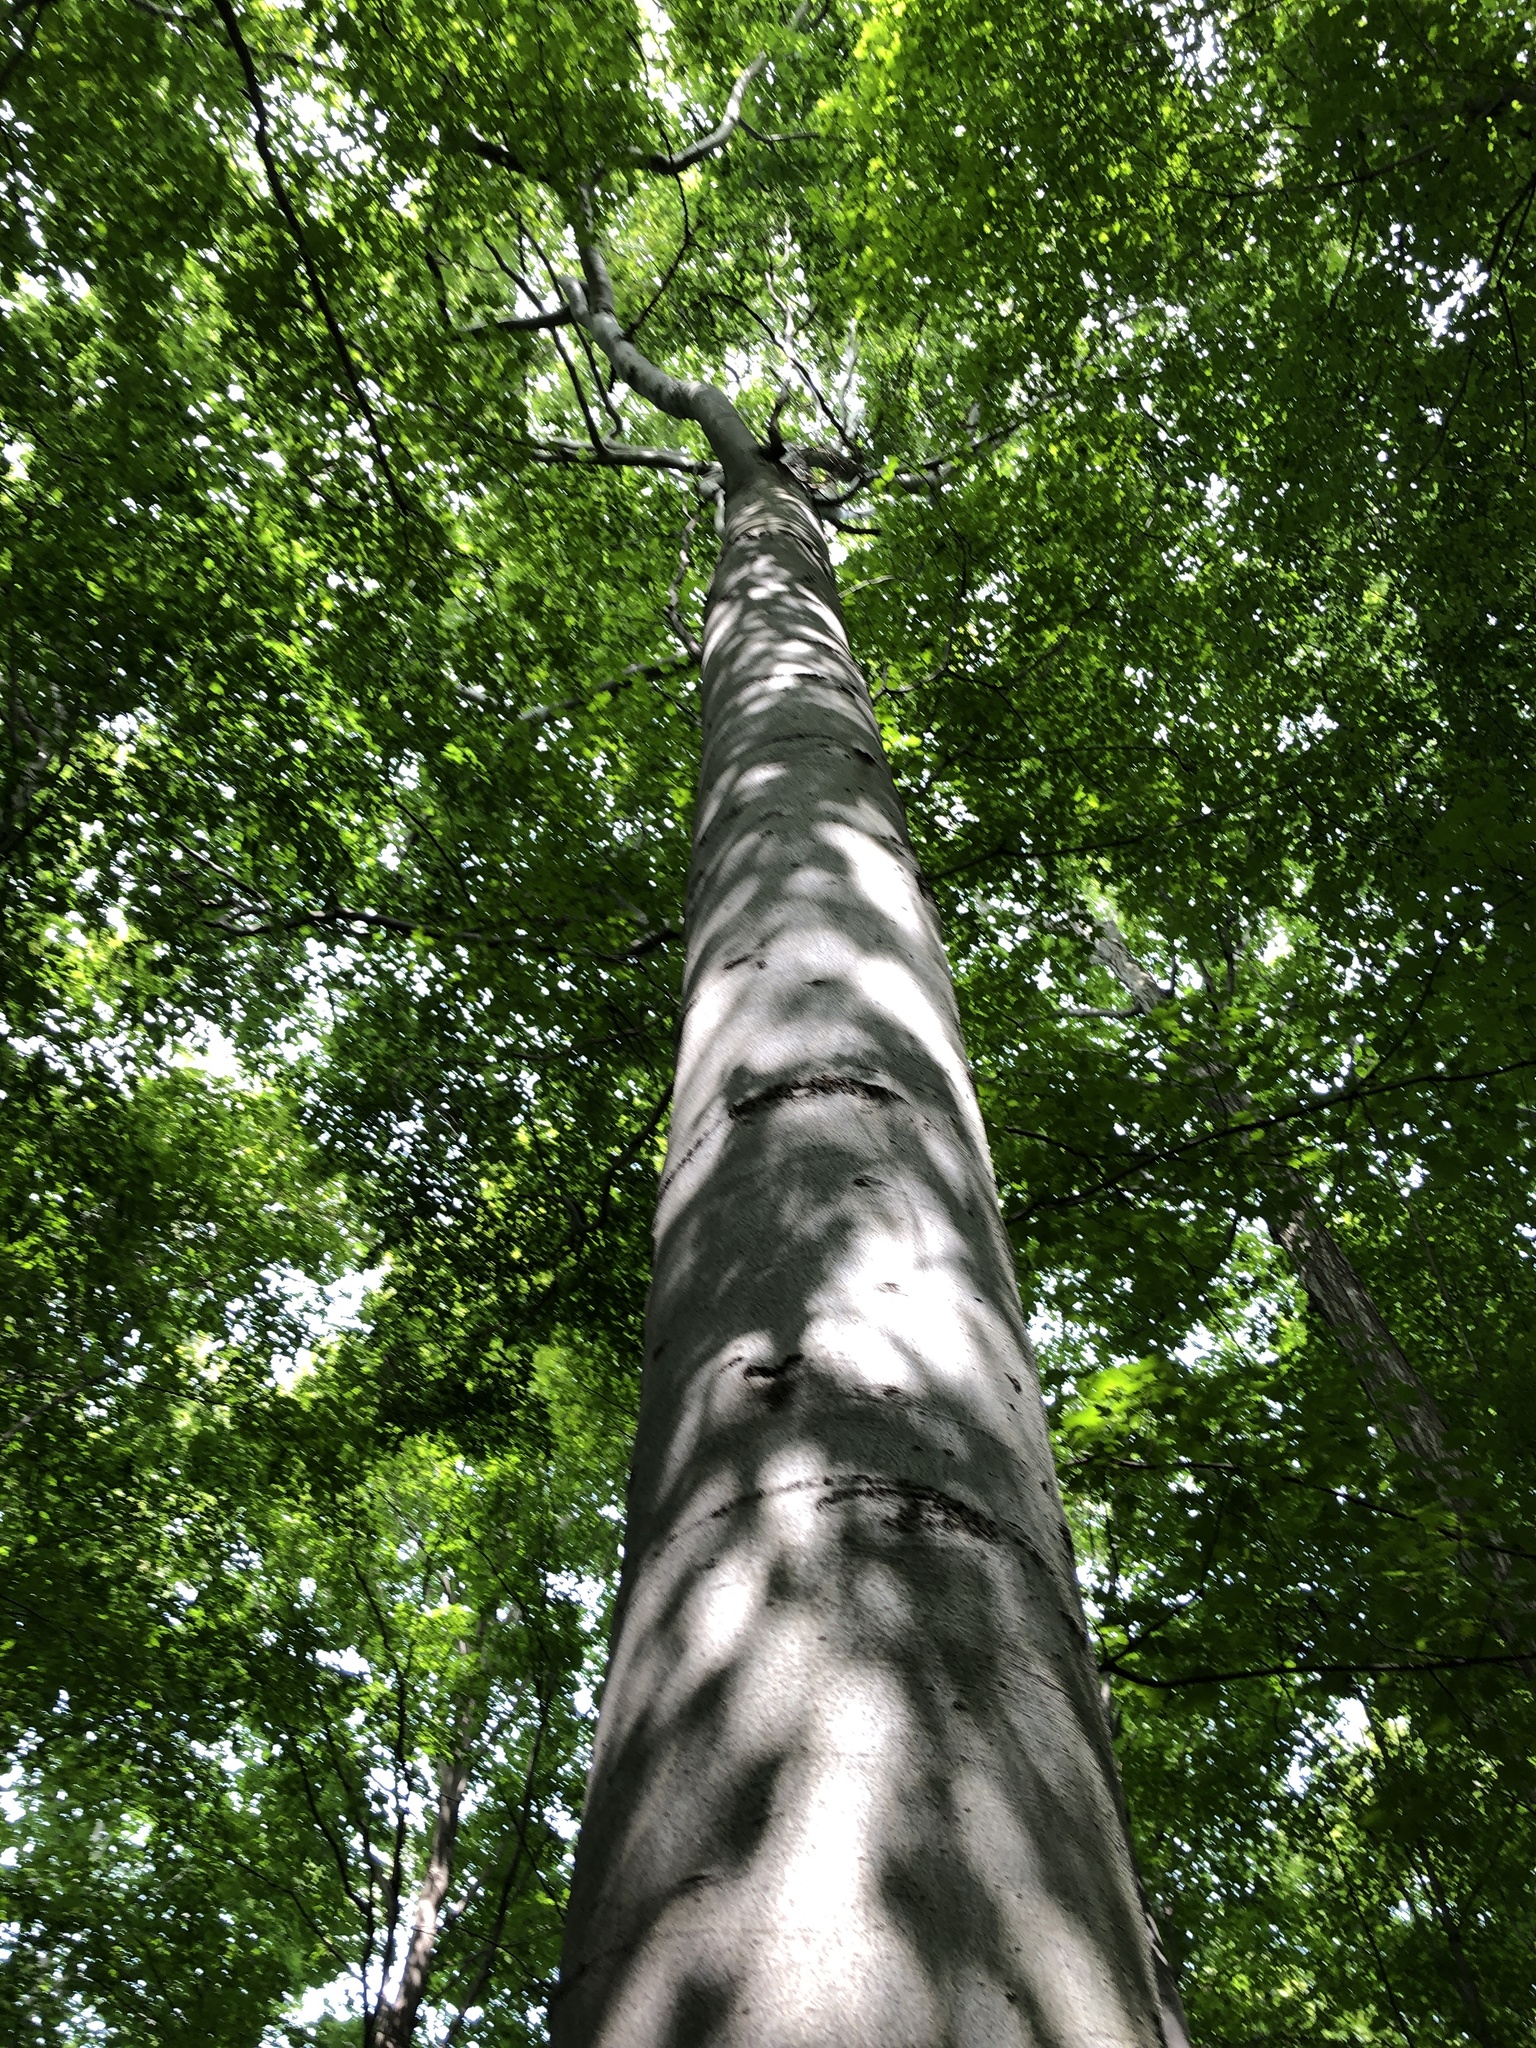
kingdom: Plantae
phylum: Tracheophyta
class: Magnoliopsida
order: Fagales
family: Fagaceae
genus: Fagus
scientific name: Fagus grandifolia
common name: American beech
